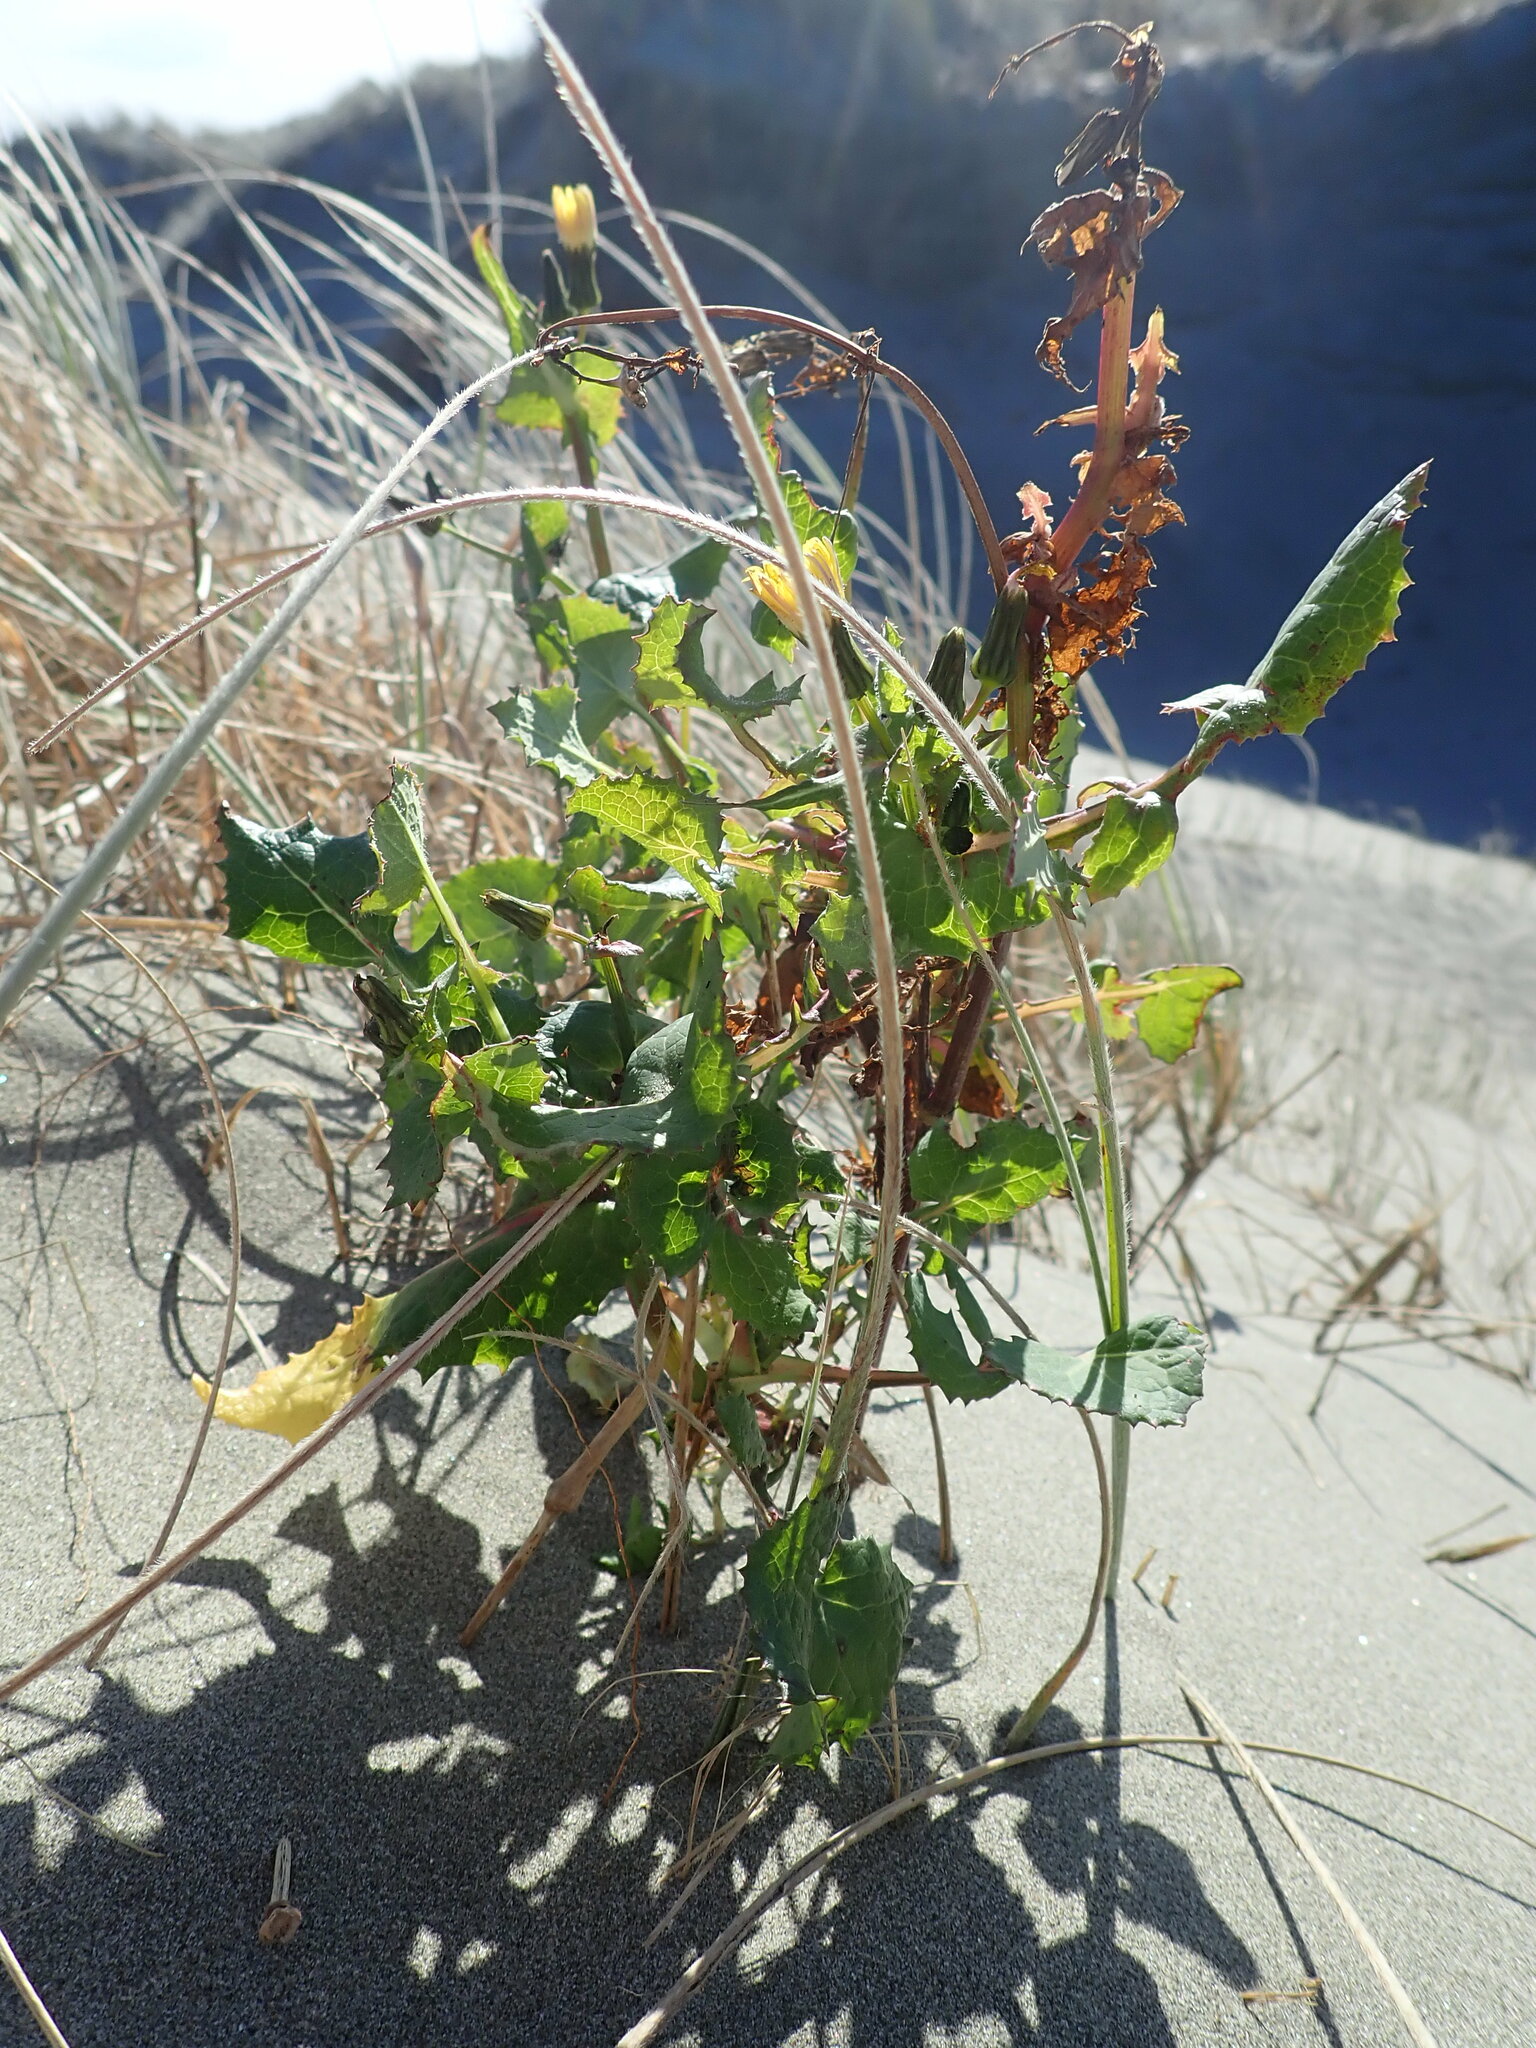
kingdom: Plantae
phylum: Tracheophyta
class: Magnoliopsida
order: Asterales
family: Asteraceae
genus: Sonchus
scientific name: Sonchus oleraceus
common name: Common sowthistle
